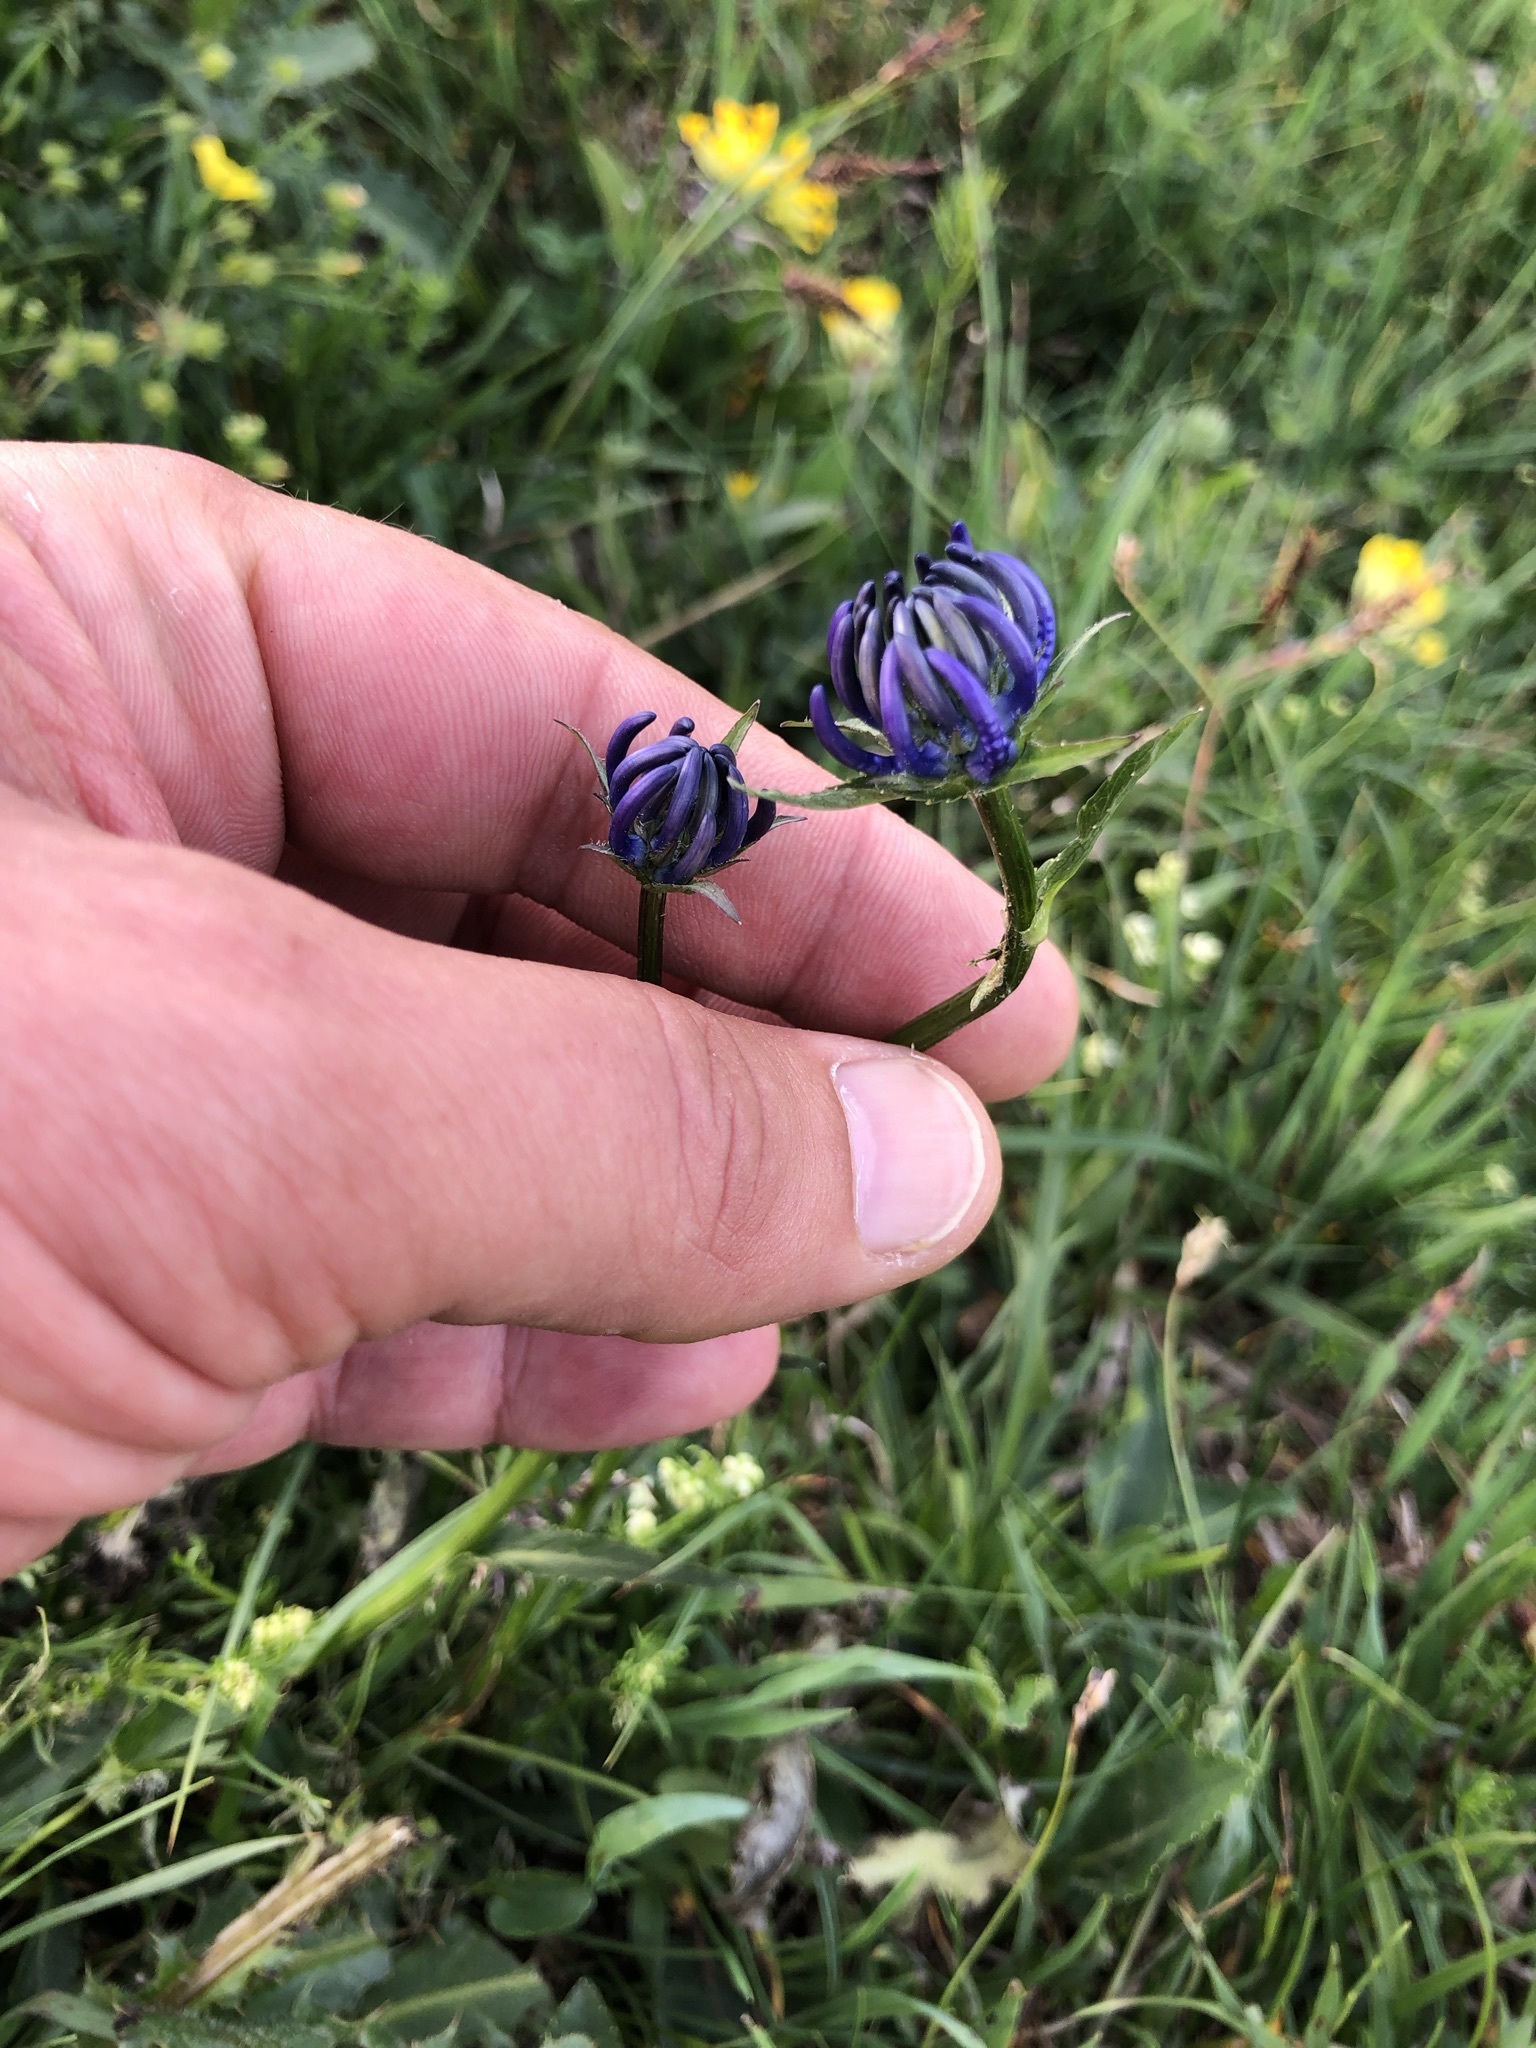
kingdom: Plantae
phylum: Tracheophyta
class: Magnoliopsida
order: Asterales
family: Campanulaceae
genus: Phyteuma
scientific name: Phyteuma orbiculare
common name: Round-headed rampion
